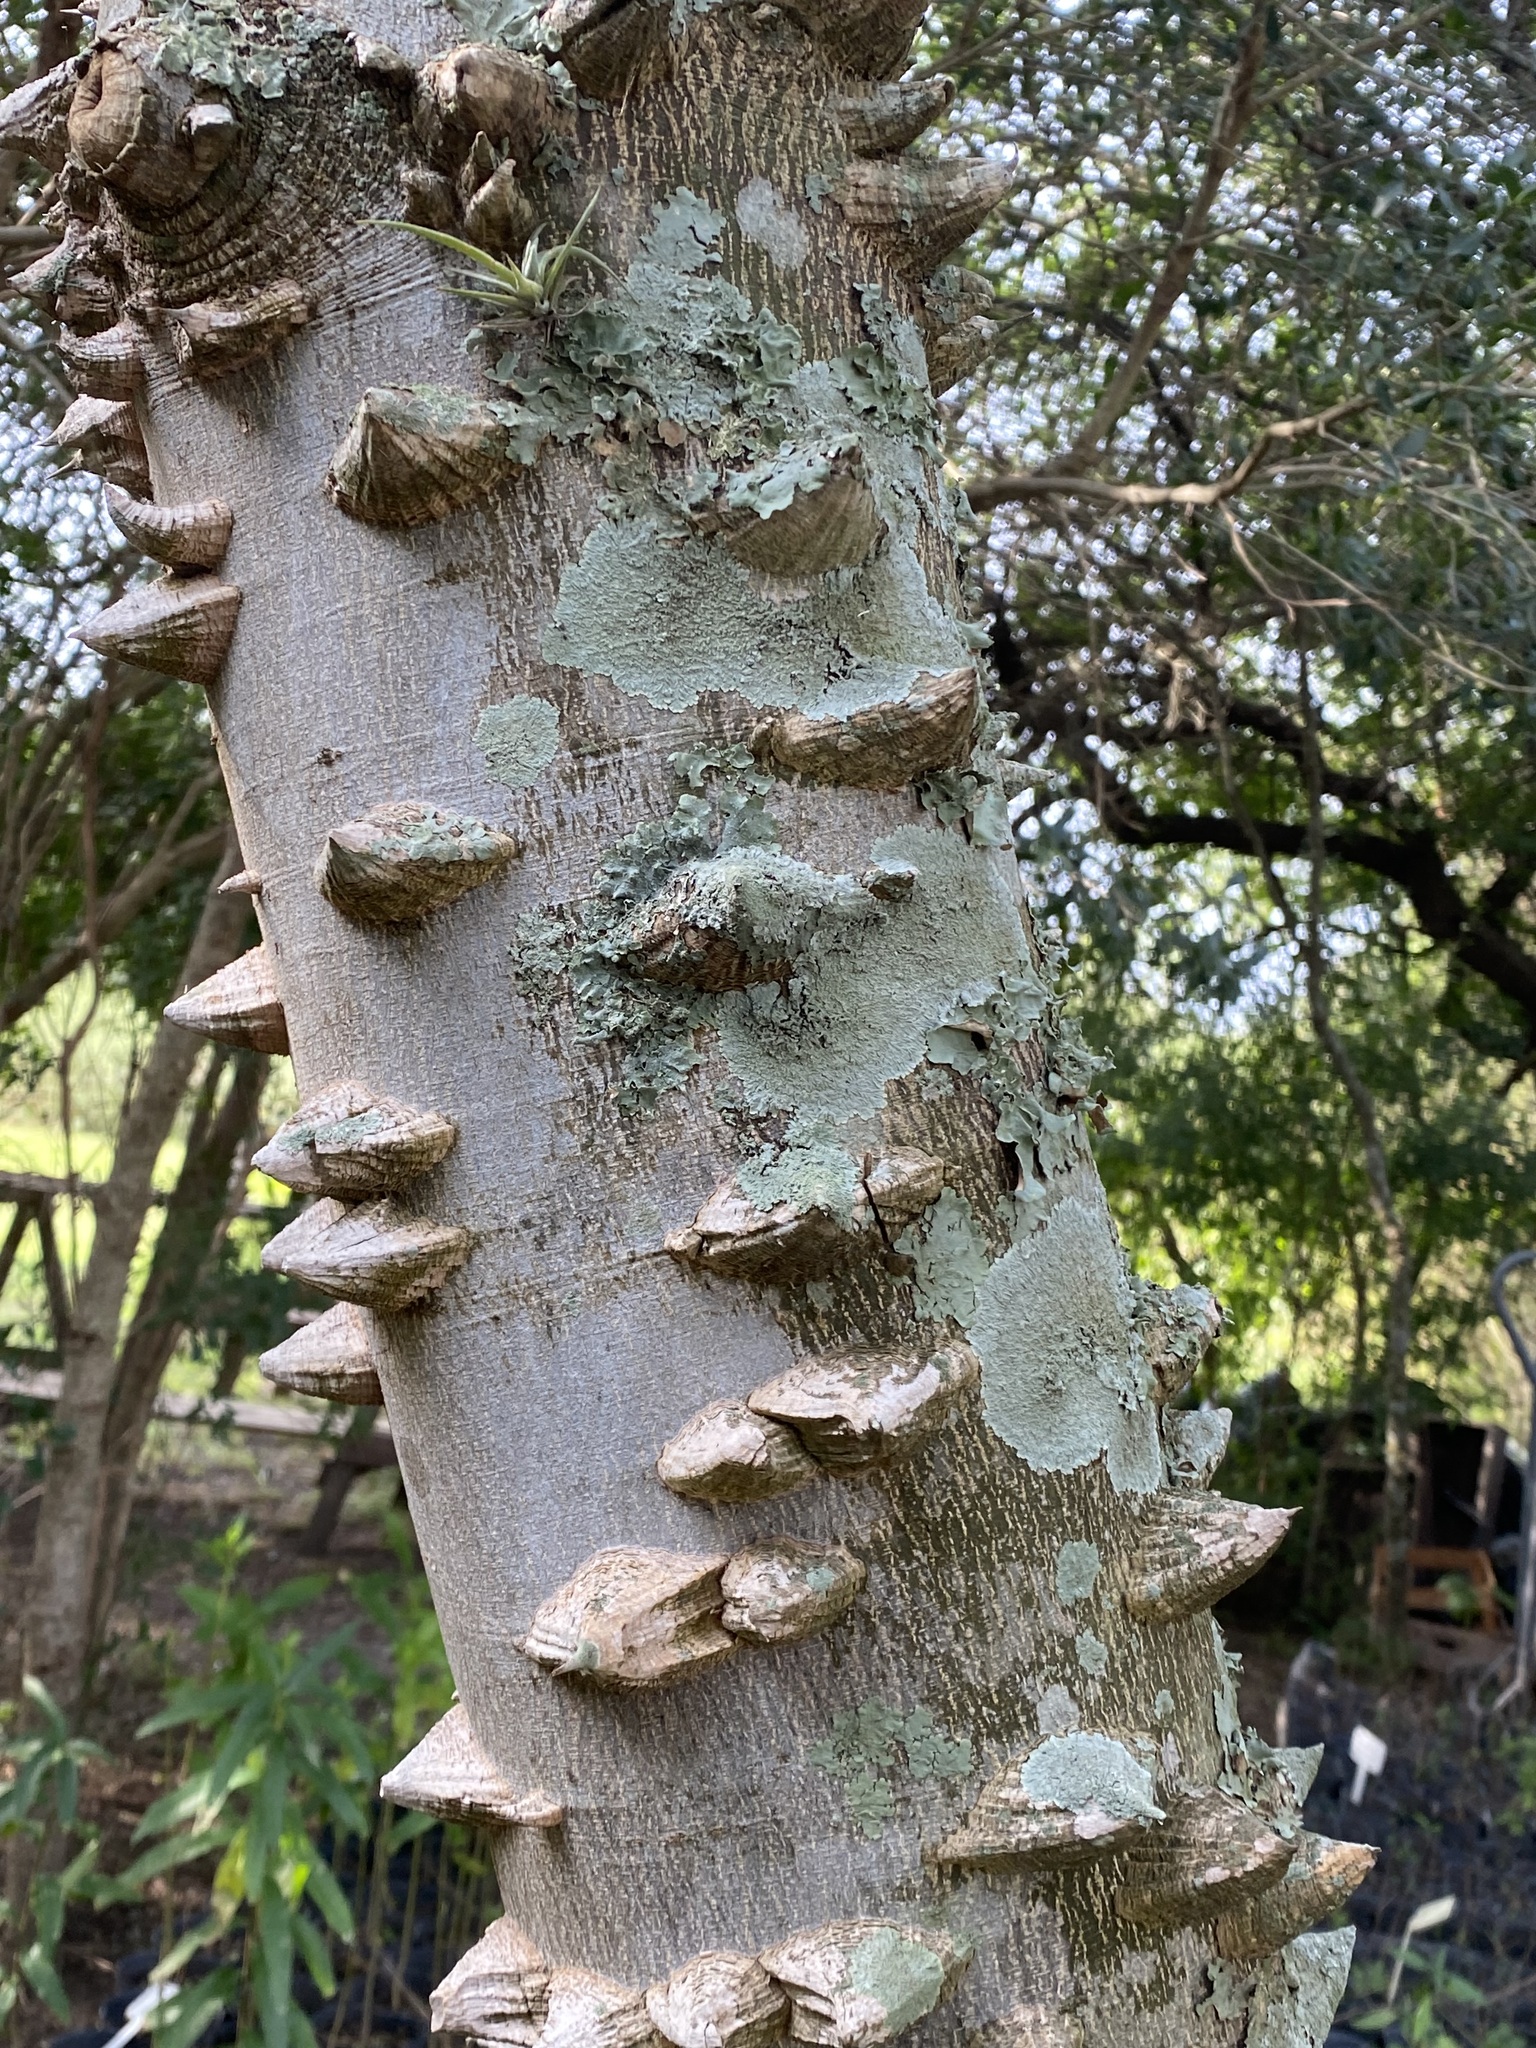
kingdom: Plantae
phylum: Tracheophyta
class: Magnoliopsida
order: Sapindales
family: Rutaceae
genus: Zanthoxylum
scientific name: Zanthoxylum rhoifolium
